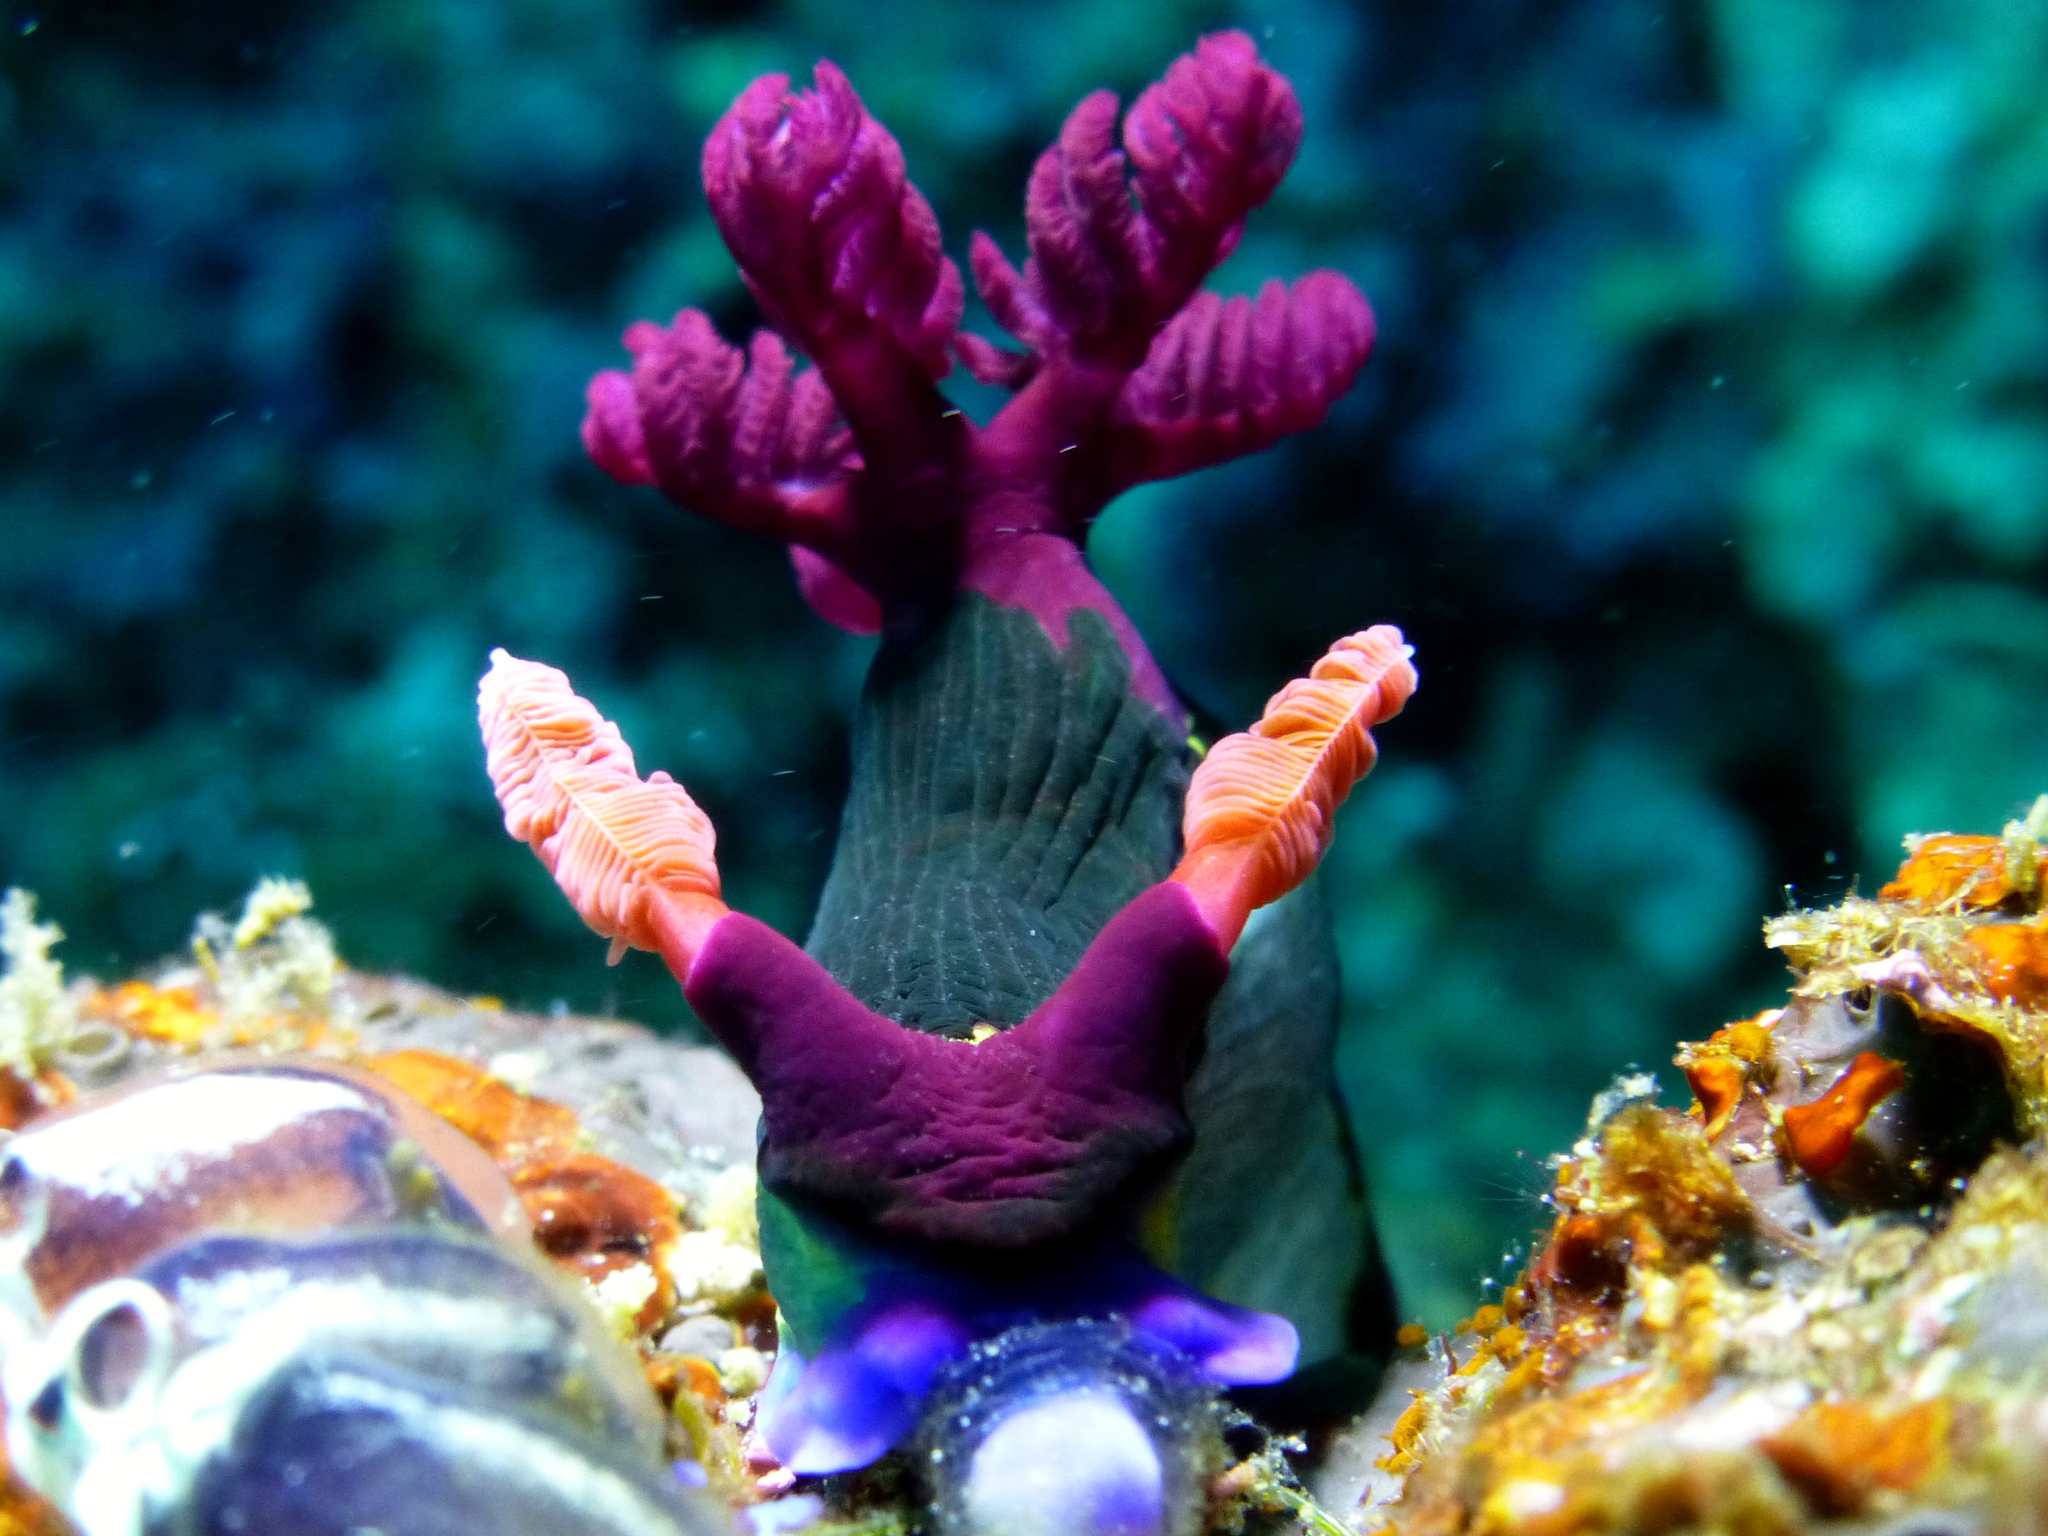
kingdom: Animalia
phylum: Mollusca
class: Gastropoda
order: Nudibranchia
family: Polyceridae
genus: Nembrotha
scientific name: Nembrotha chamberlaini
